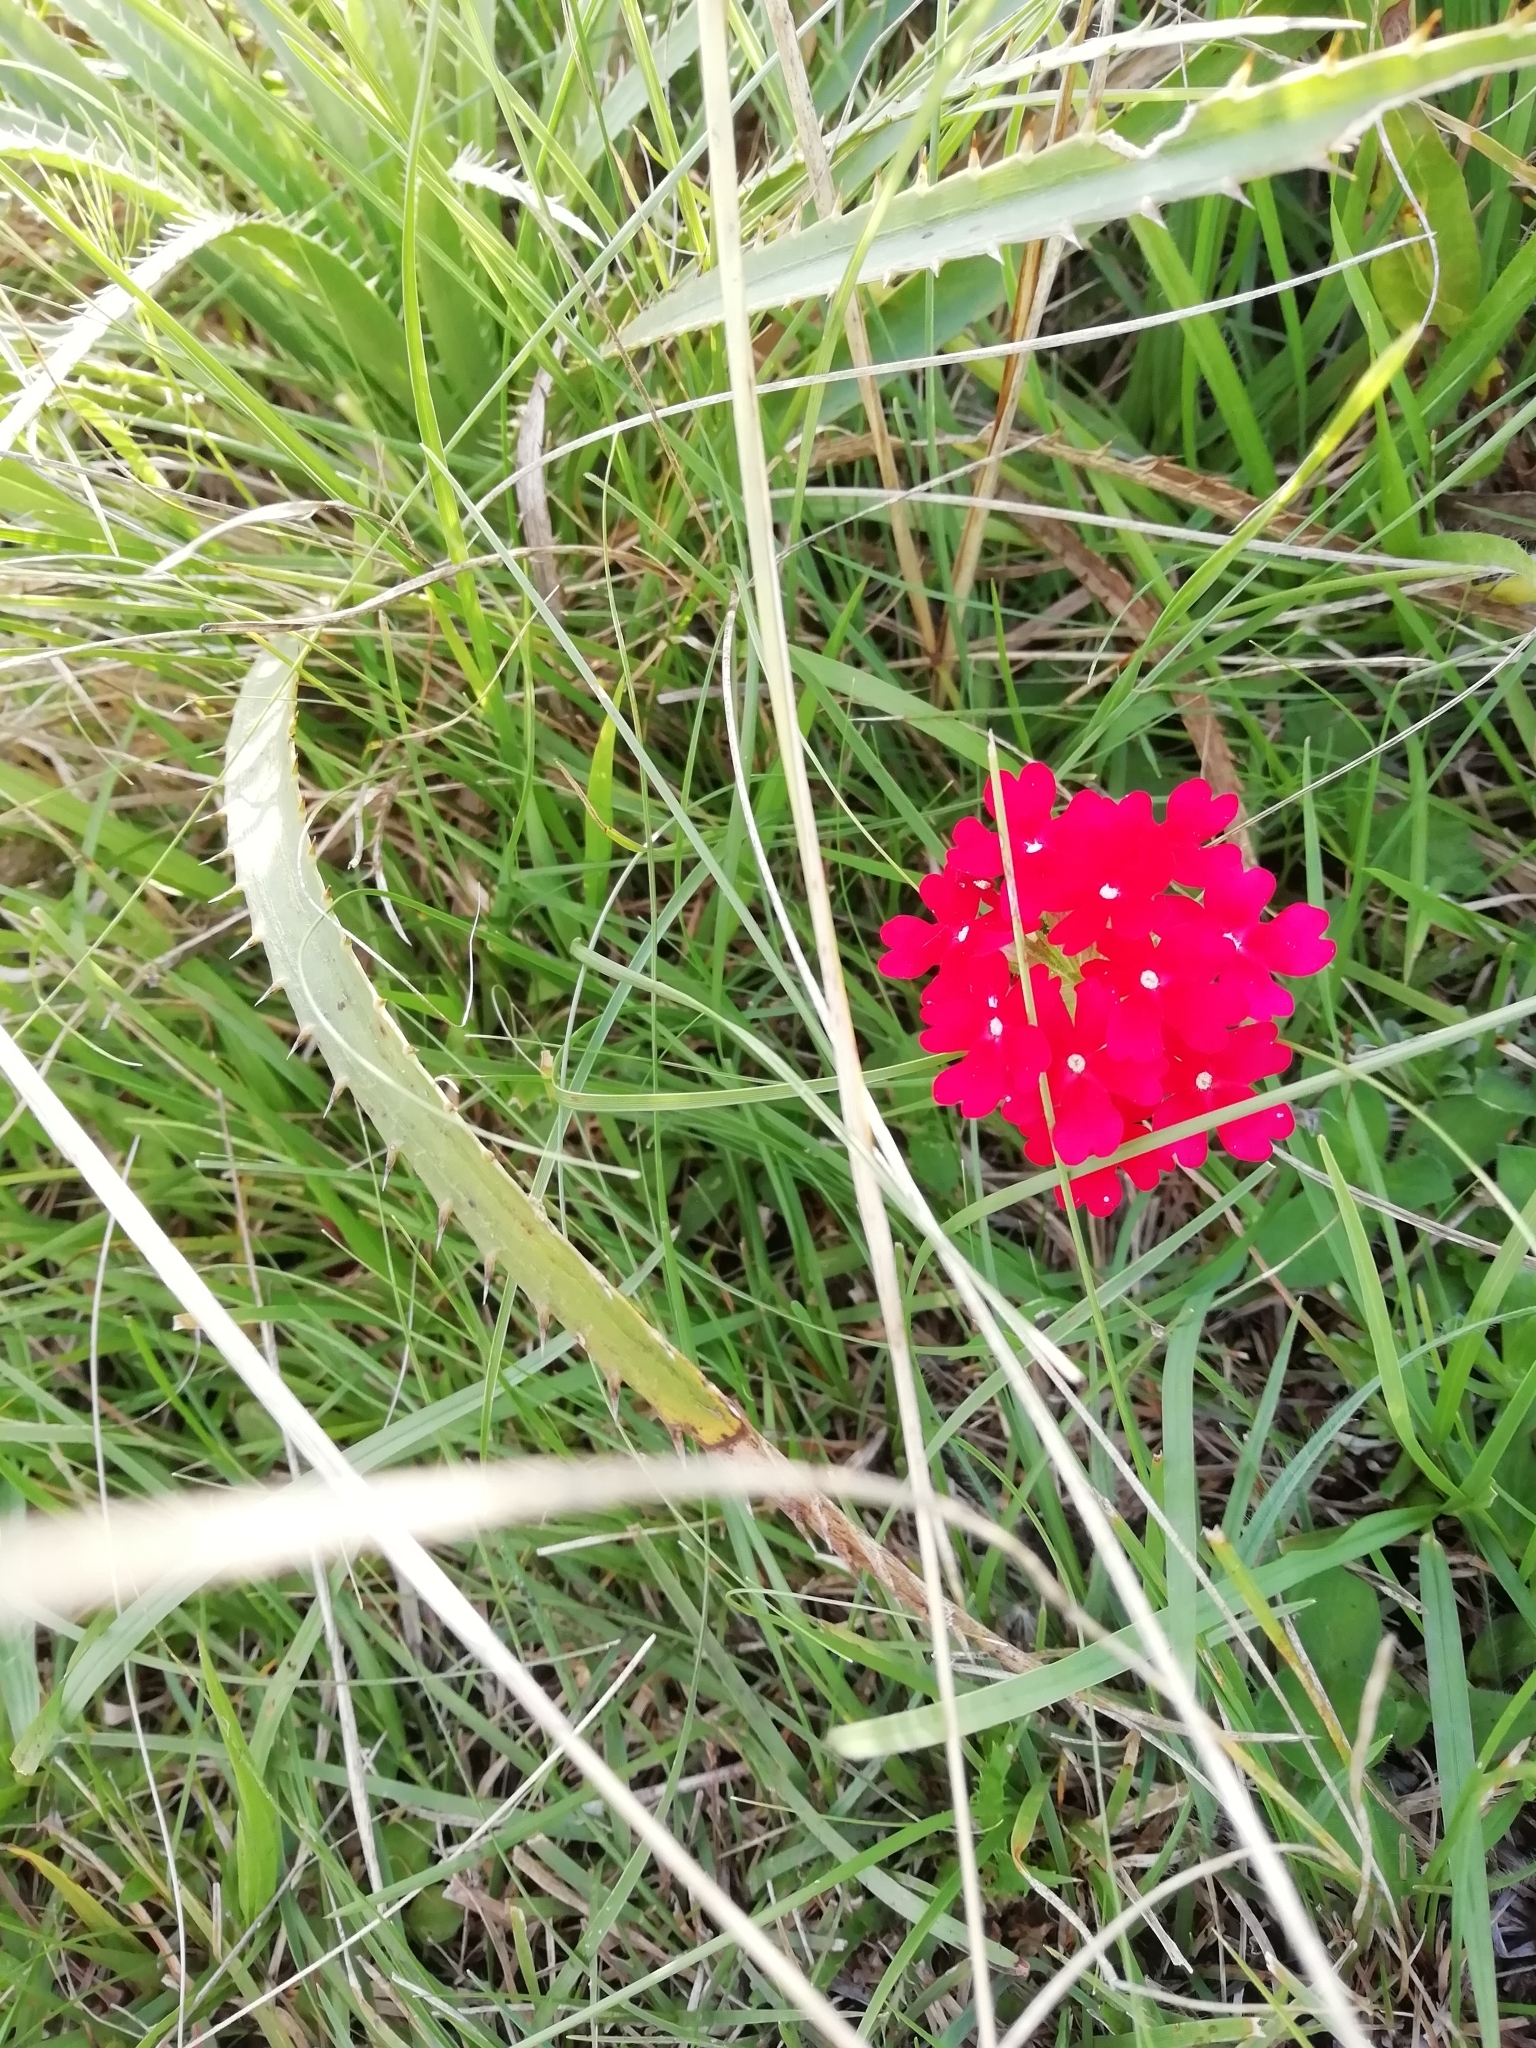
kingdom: Plantae
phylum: Tracheophyta
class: Magnoliopsida
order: Lamiales
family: Verbenaceae
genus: Verbena
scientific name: Verbena peruviana
